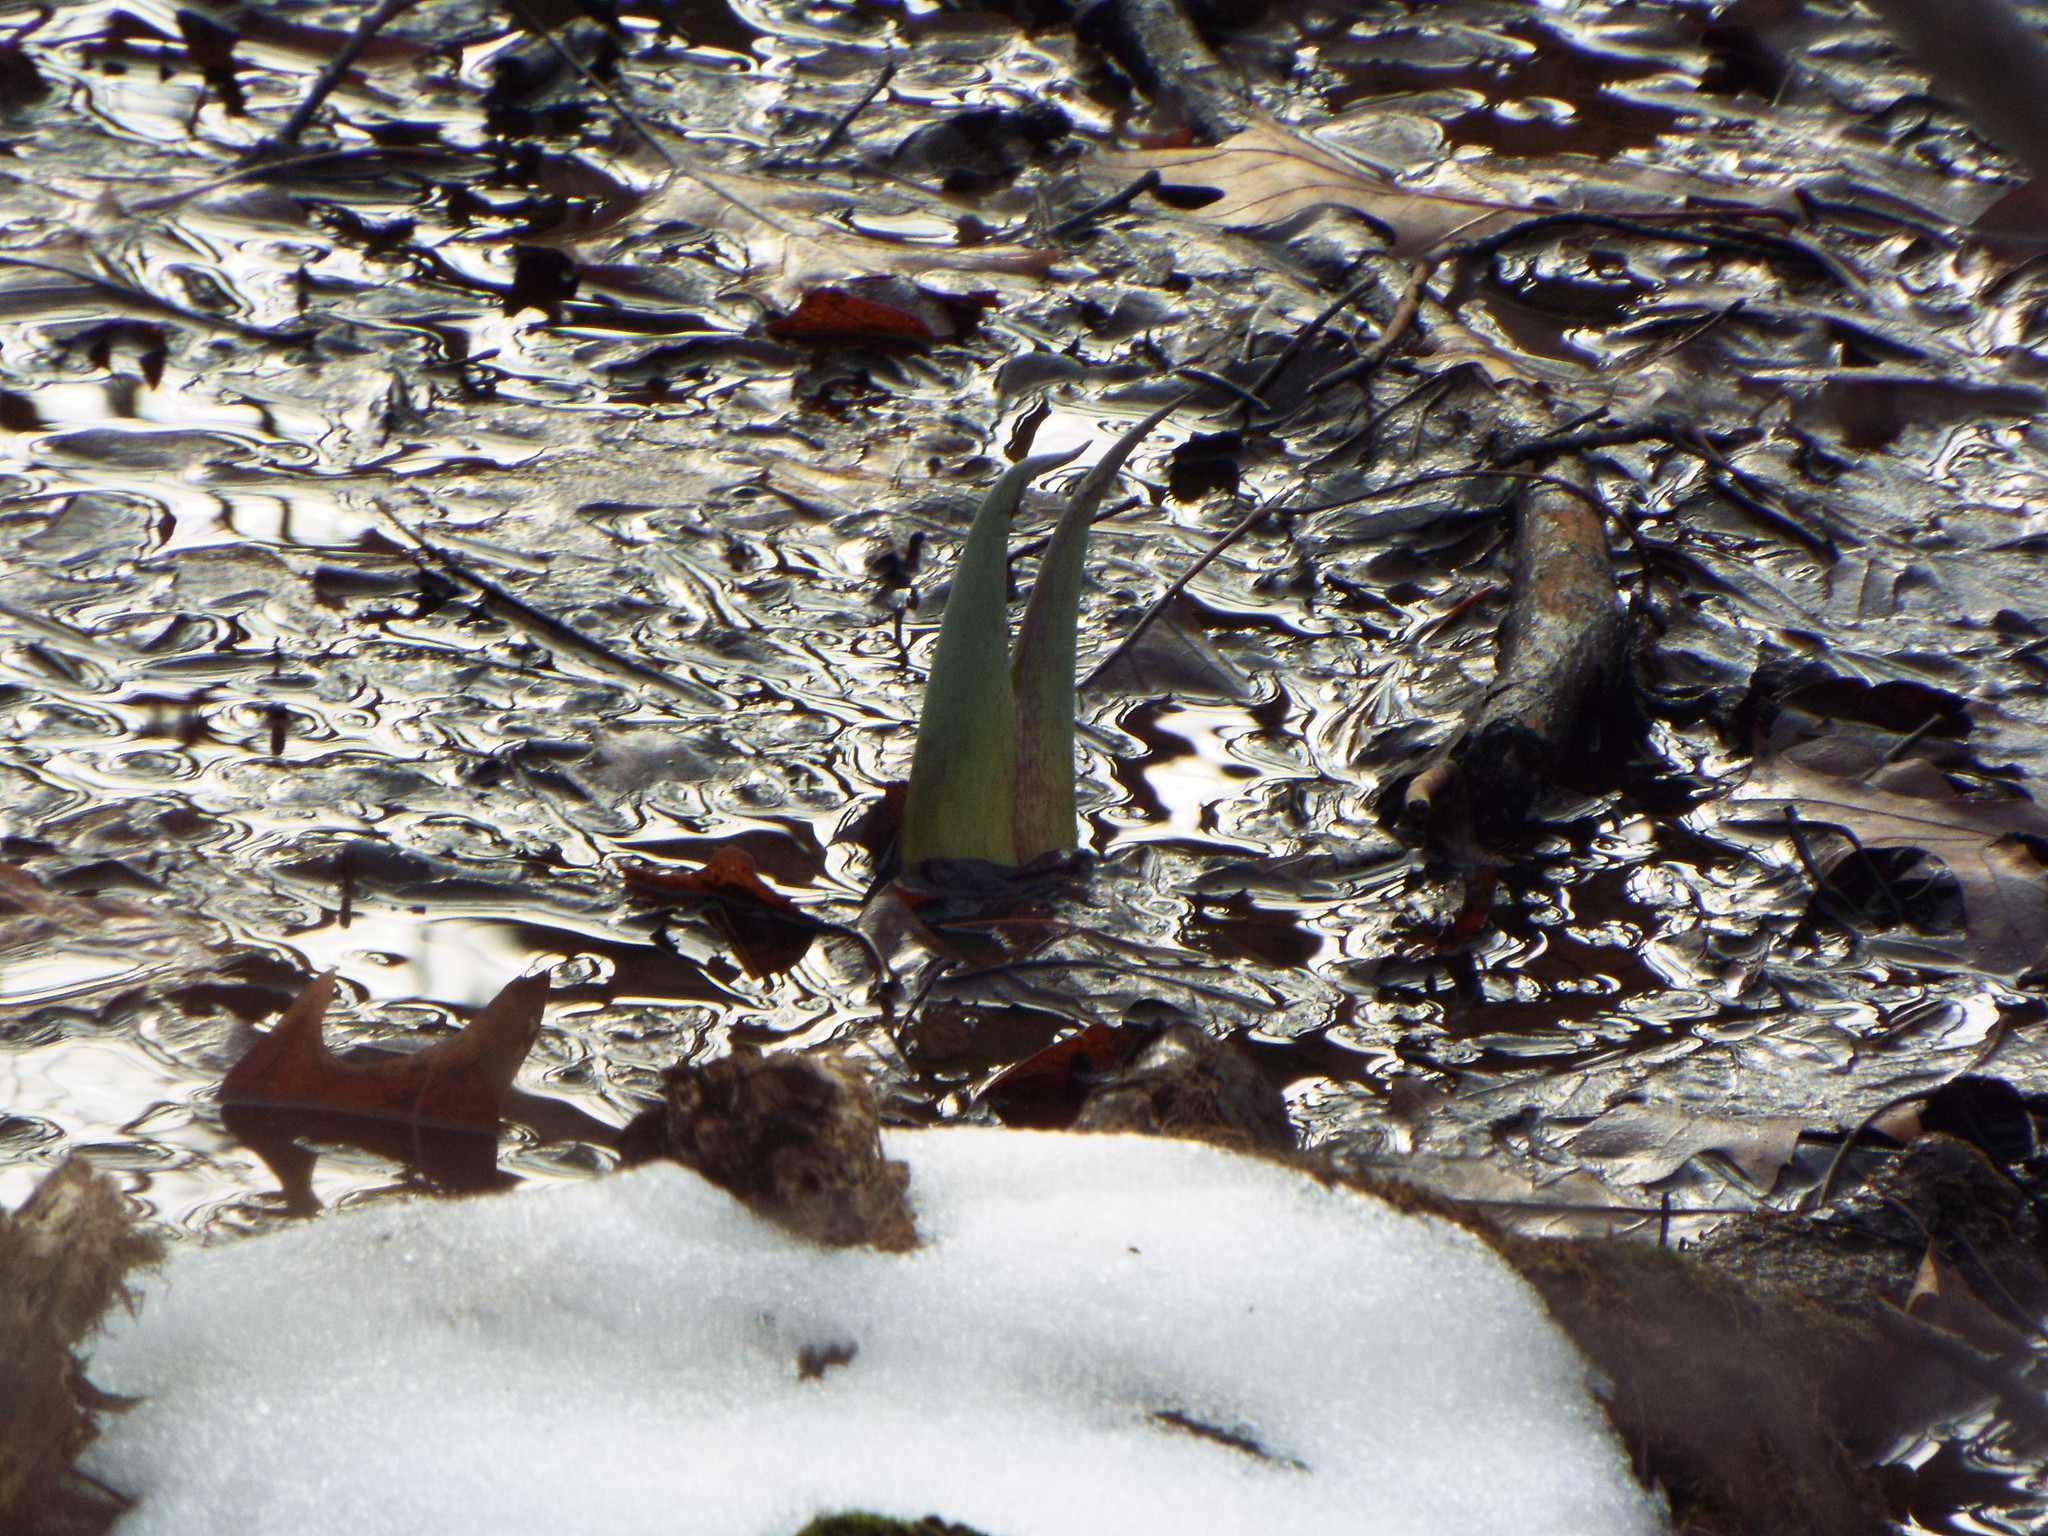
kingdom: Plantae
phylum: Tracheophyta
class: Liliopsida
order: Alismatales
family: Araceae
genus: Symplocarpus
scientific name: Symplocarpus foetidus
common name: Eastern skunk cabbage
